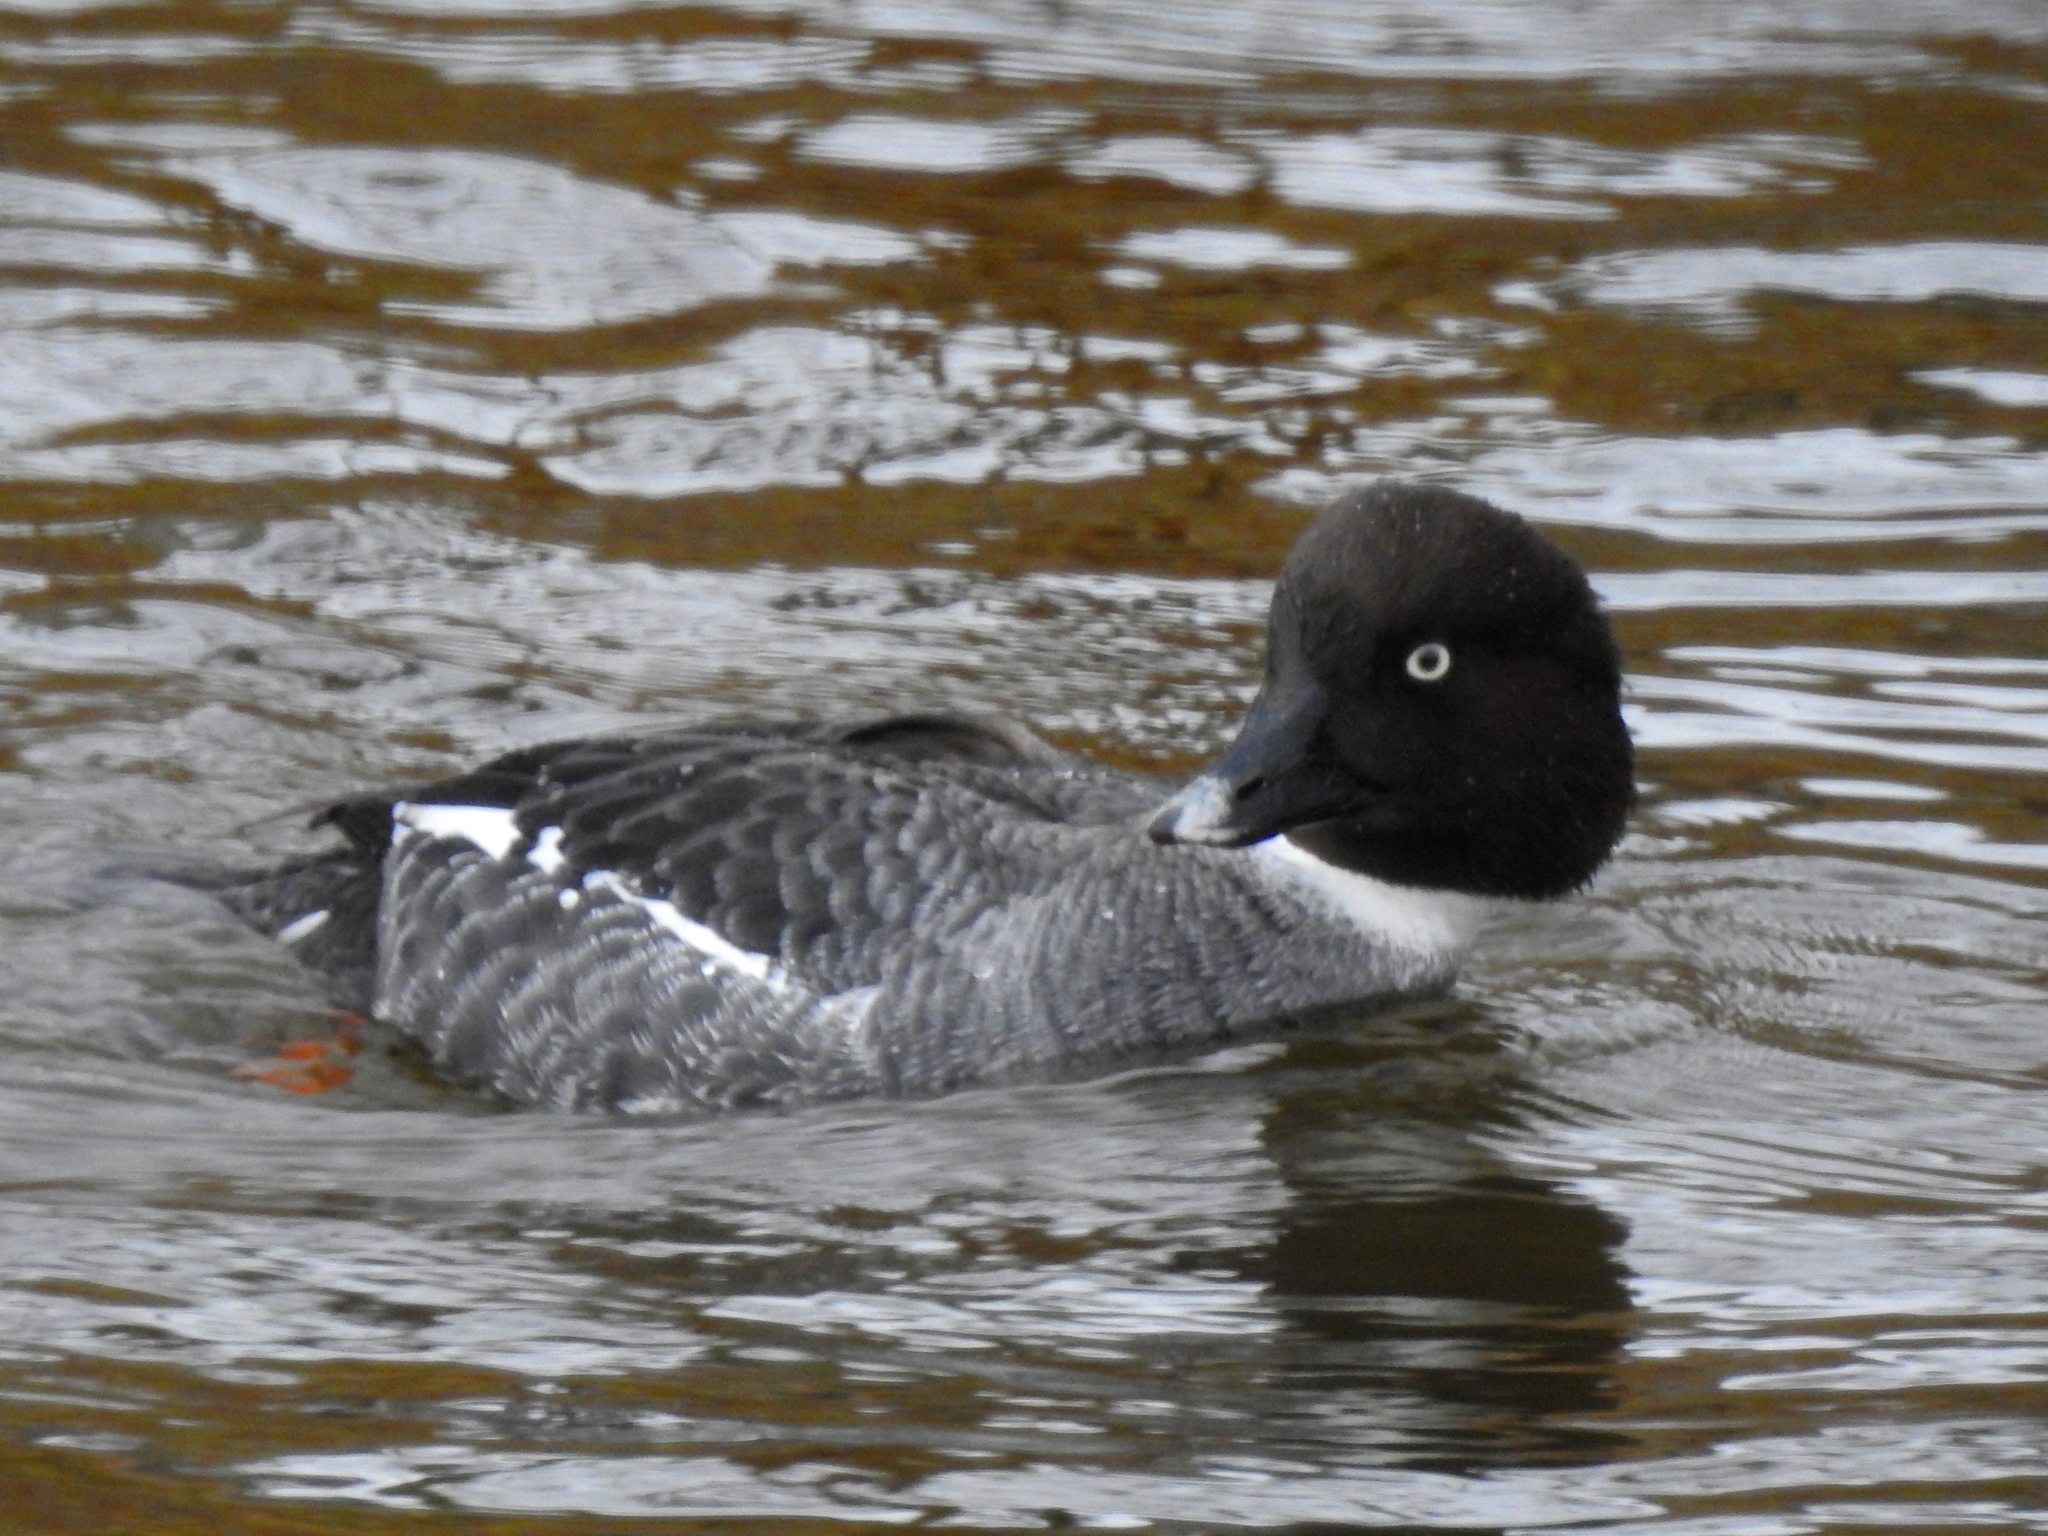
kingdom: Animalia
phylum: Chordata
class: Aves
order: Anseriformes
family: Anatidae
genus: Bucephala
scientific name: Bucephala clangula
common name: Common goldeneye
